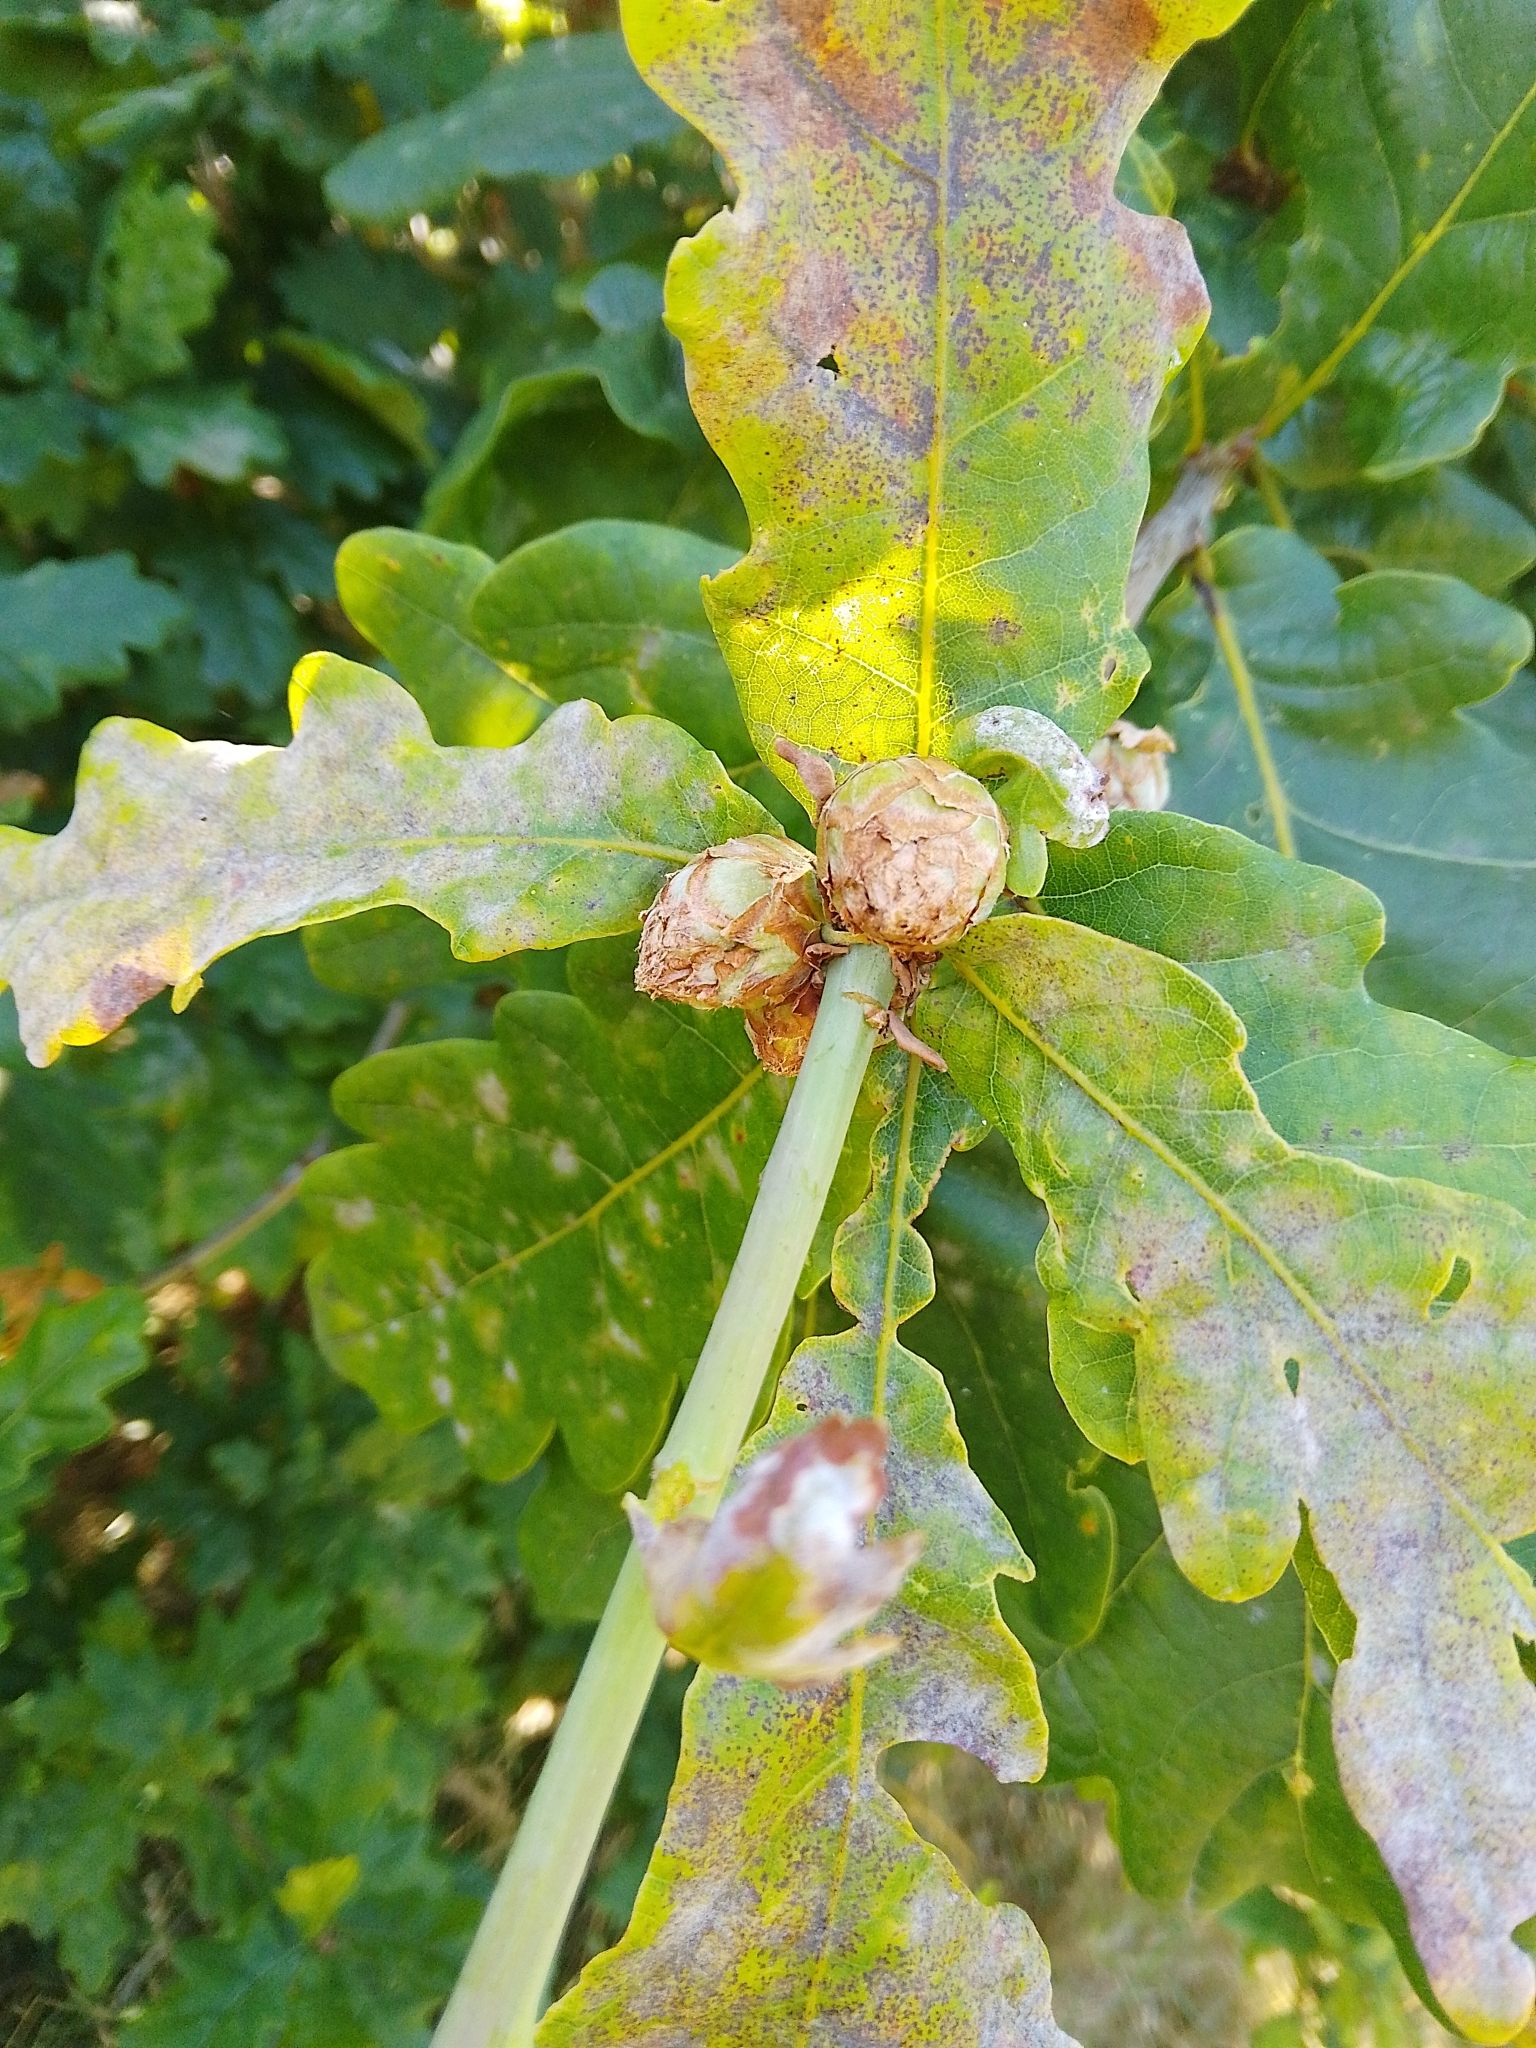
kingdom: Animalia
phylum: Arthropoda
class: Insecta
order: Hymenoptera
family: Cynipidae
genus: Andricus
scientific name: Andricus foecundatrix
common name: Artichoke gall
